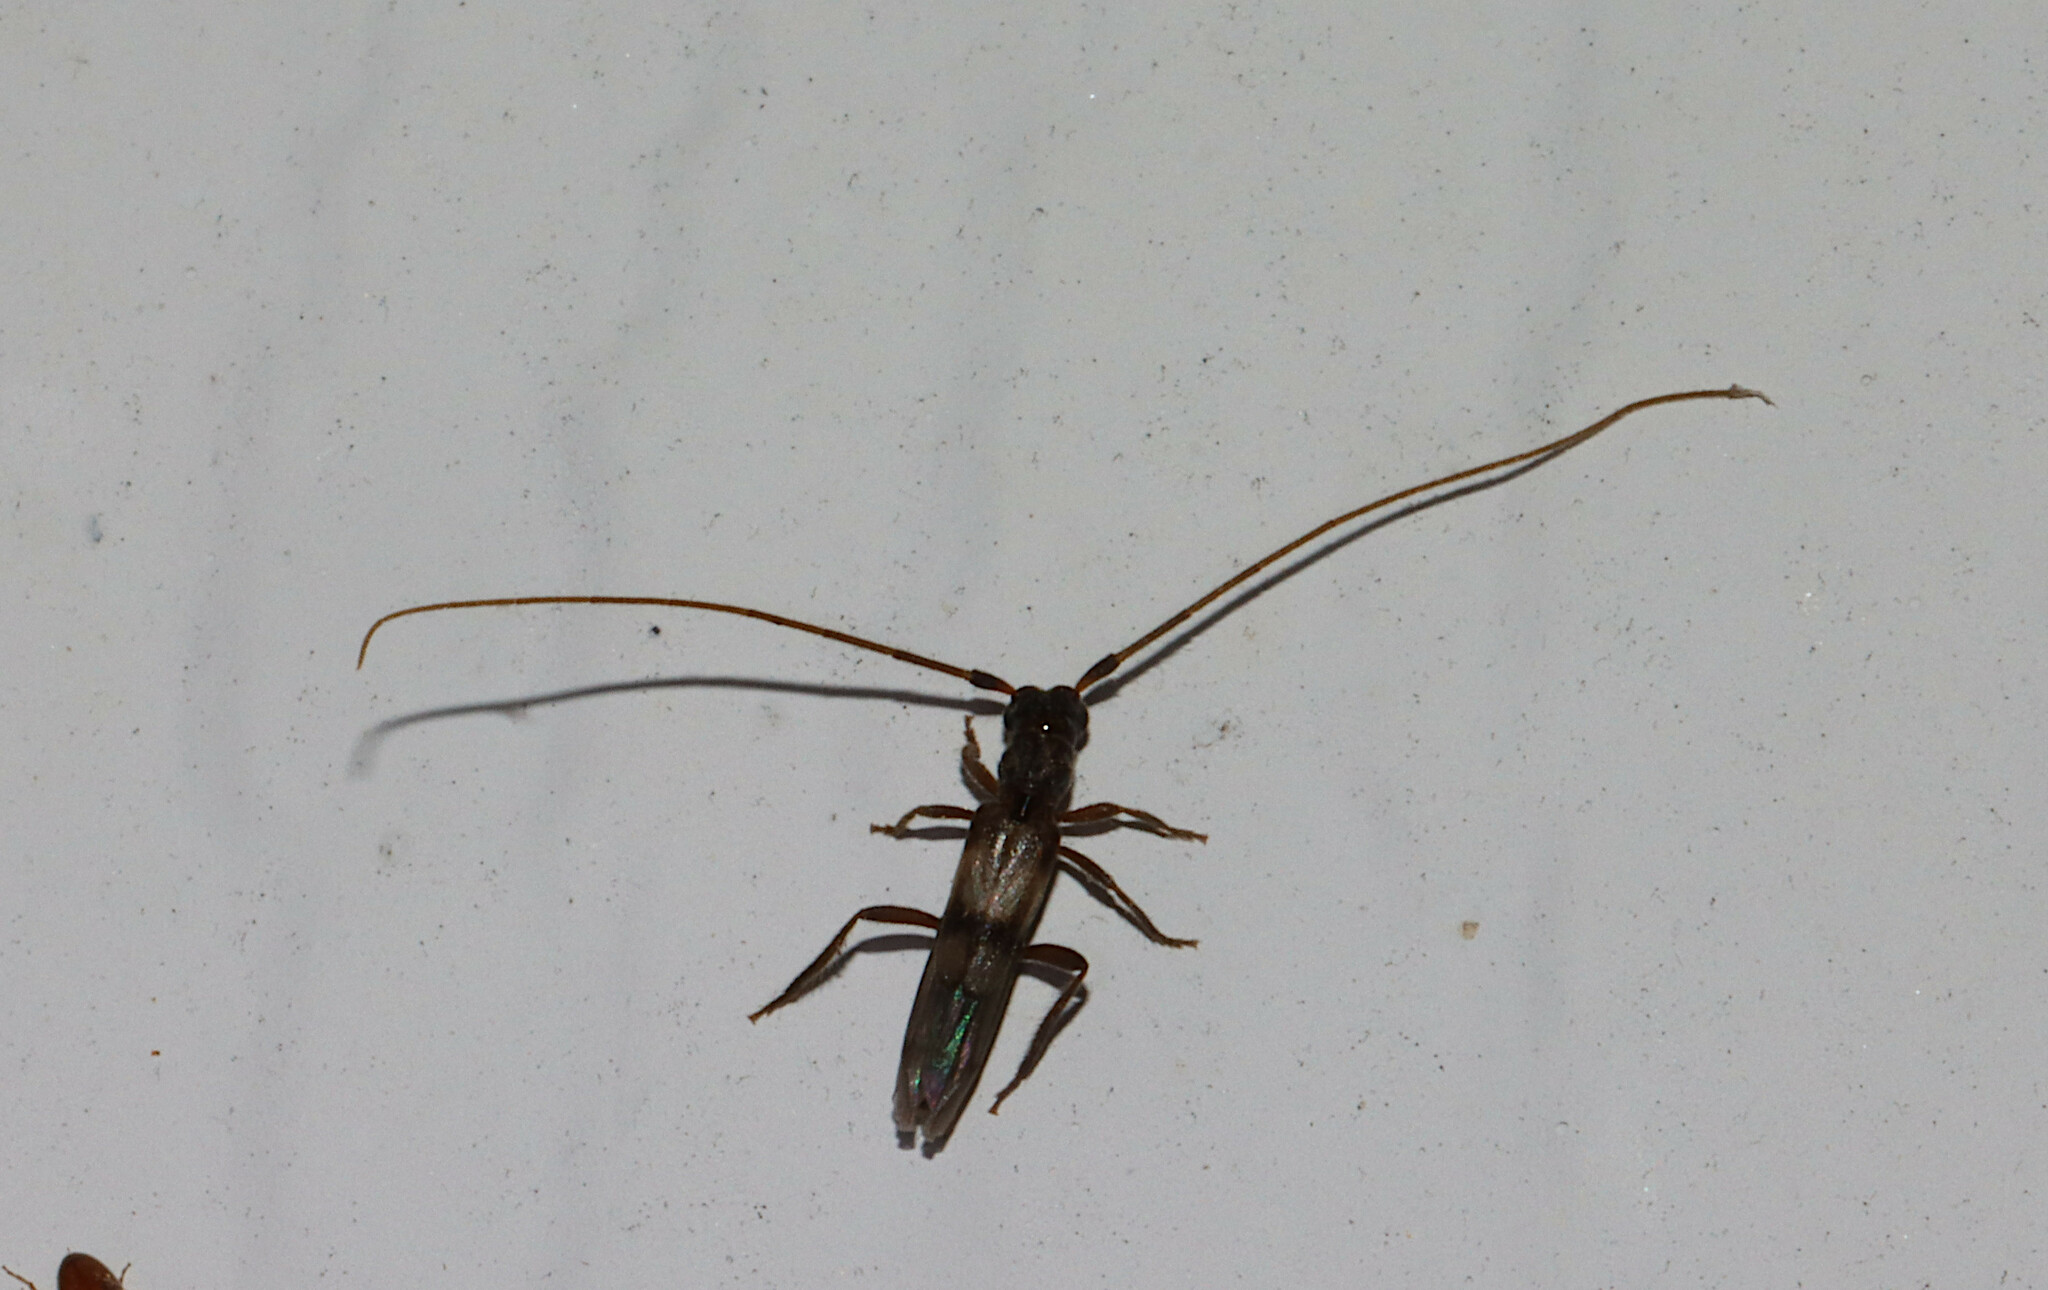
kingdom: Animalia
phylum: Arthropoda
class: Insecta
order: Coleoptera
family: Cerambycidae
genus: Methia
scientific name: Methia necydalea
